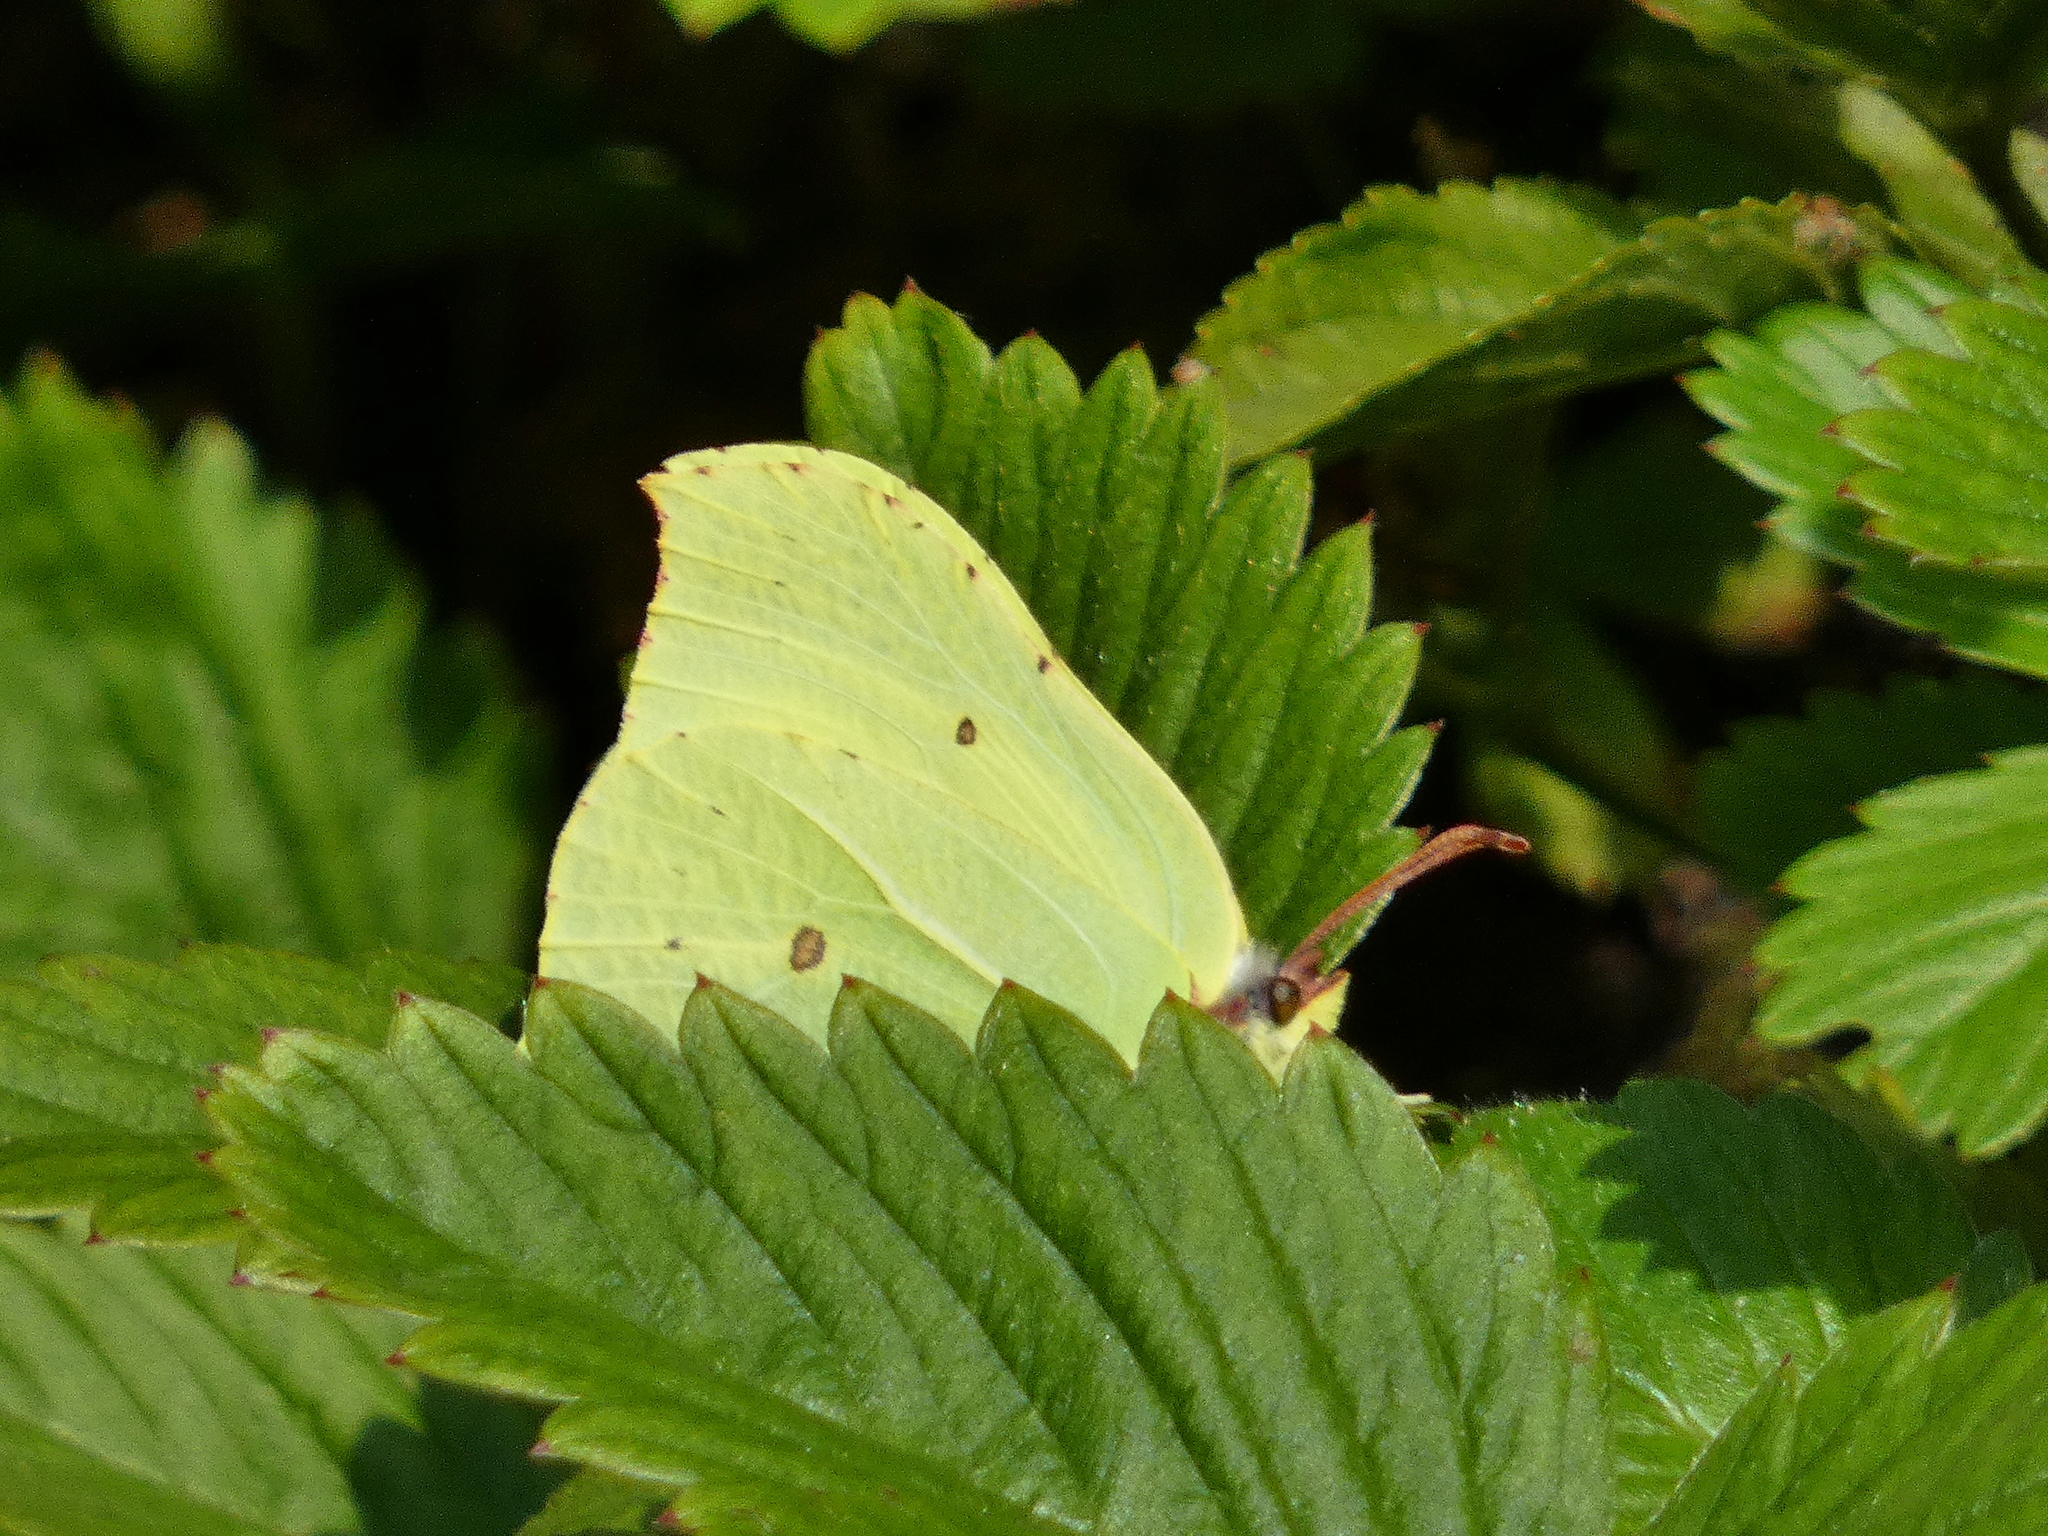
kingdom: Animalia
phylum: Arthropoda
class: Insecta
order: Lepidoptera
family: Pieridae
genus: Gonepteryx
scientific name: Gonepteryx rhamni
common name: Brimstone
